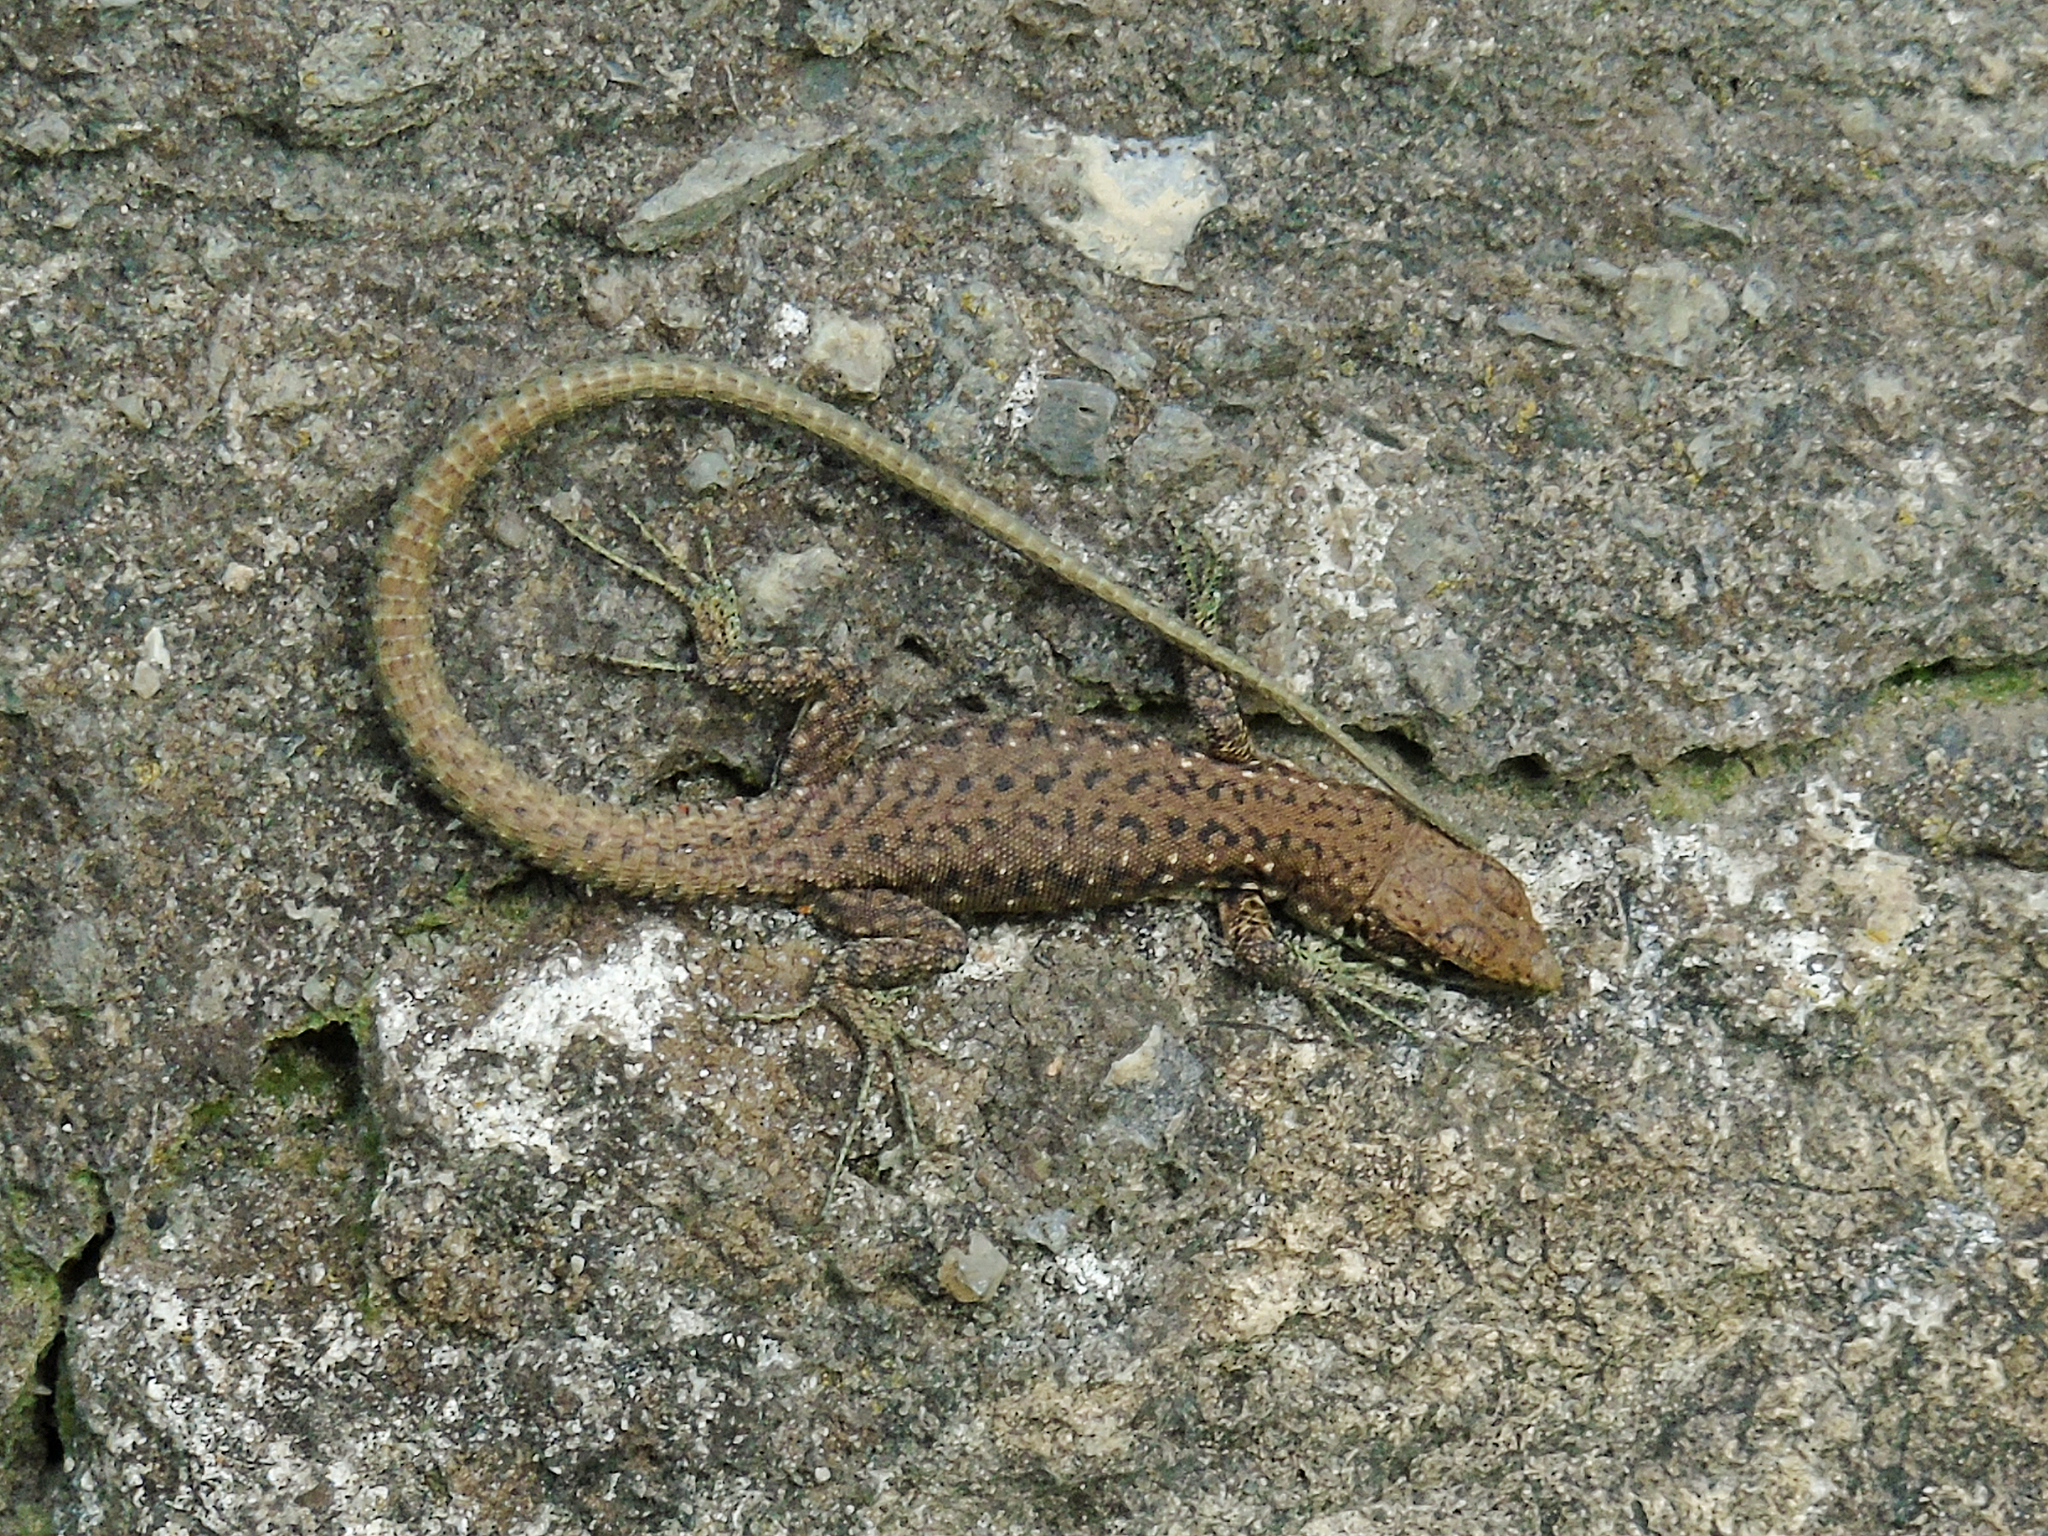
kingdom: Animalia
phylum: Chordata
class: Squamata
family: Lacertidae
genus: Darevskia
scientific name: Darevskia rudis
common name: Spiny-tailed lizard
